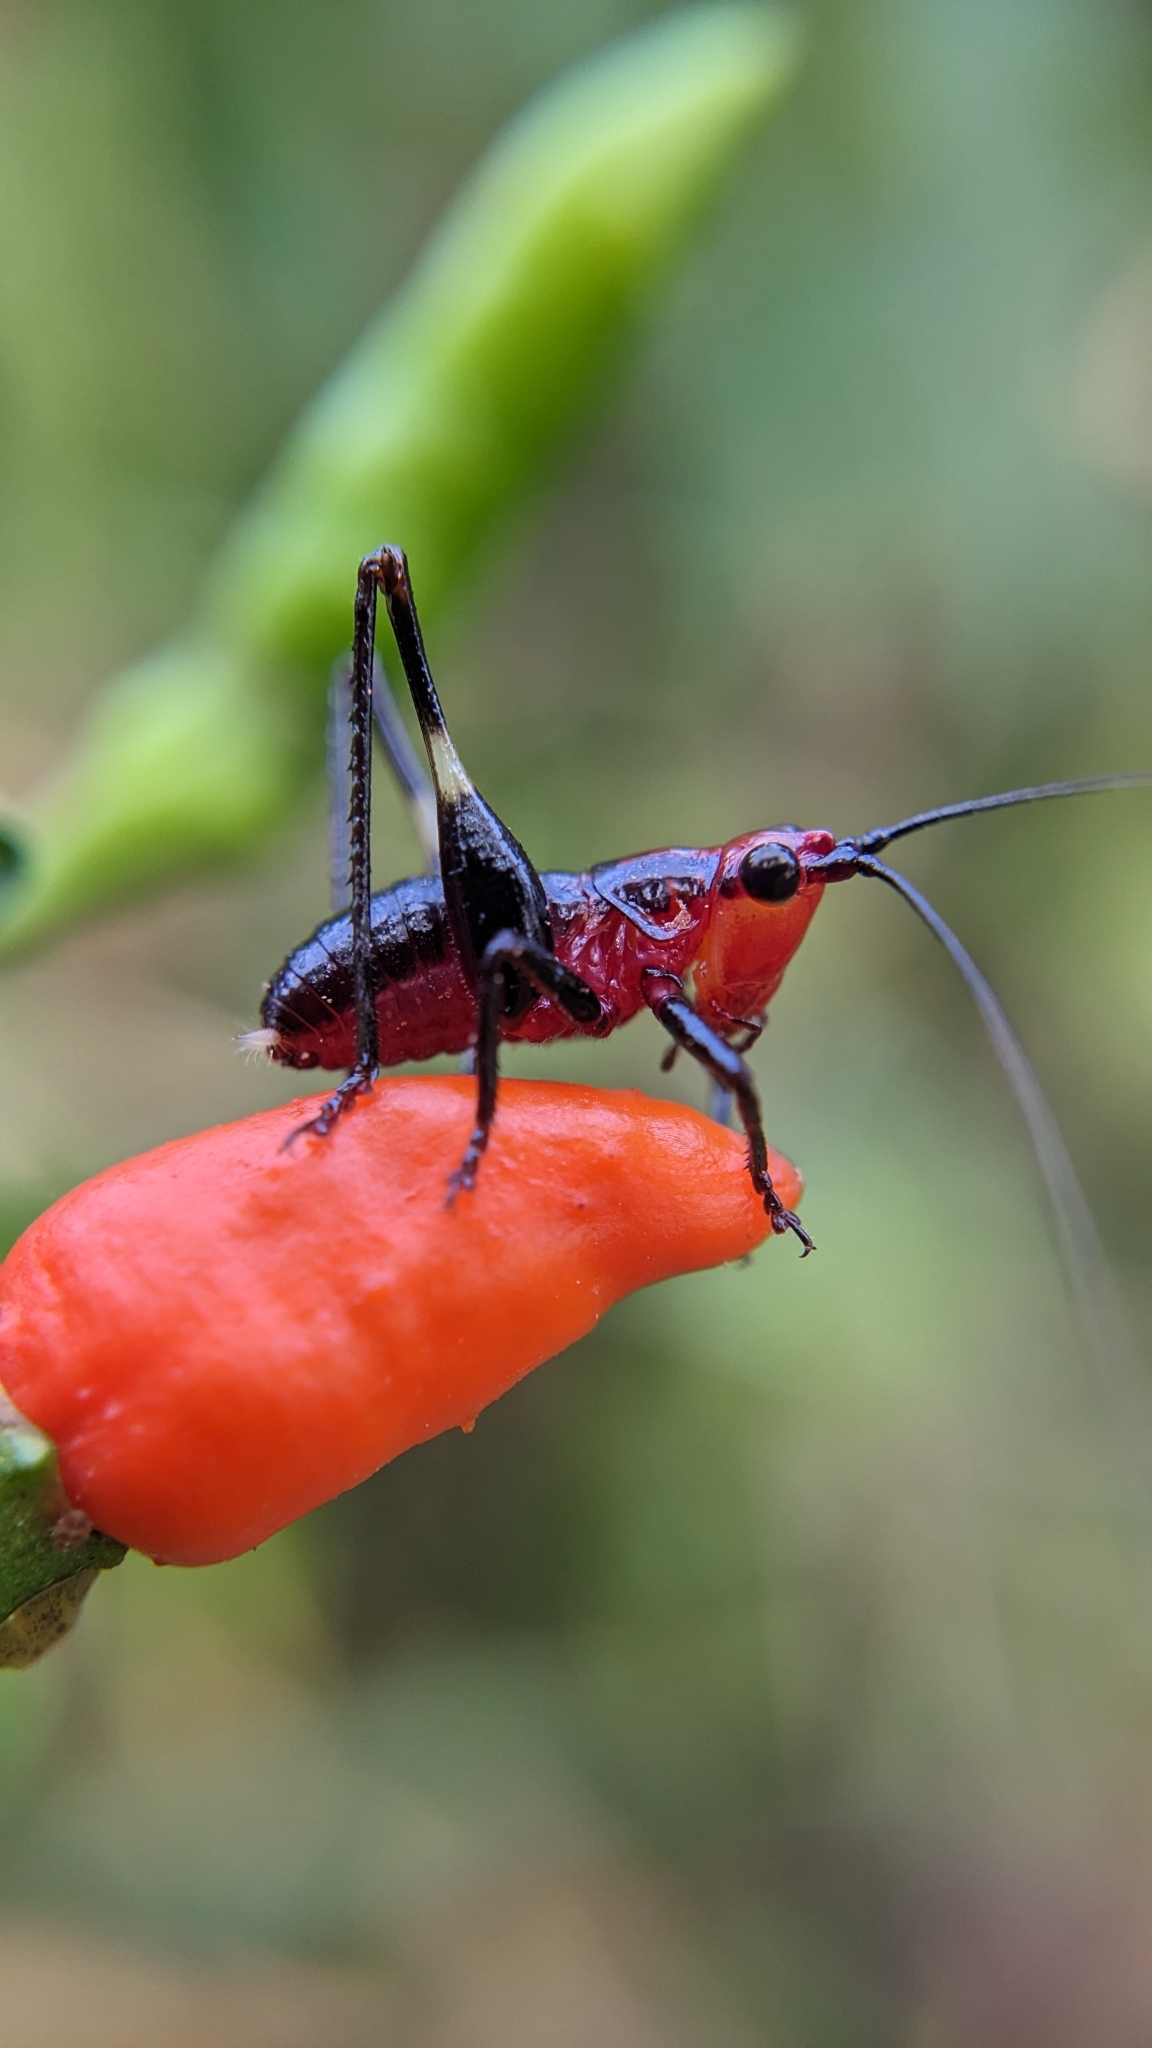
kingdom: Animalia
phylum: Arthropoda
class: Insecta
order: Orthoptera
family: Tettigoniidae
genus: Conocephalus
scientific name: Conocephalus melaenus
